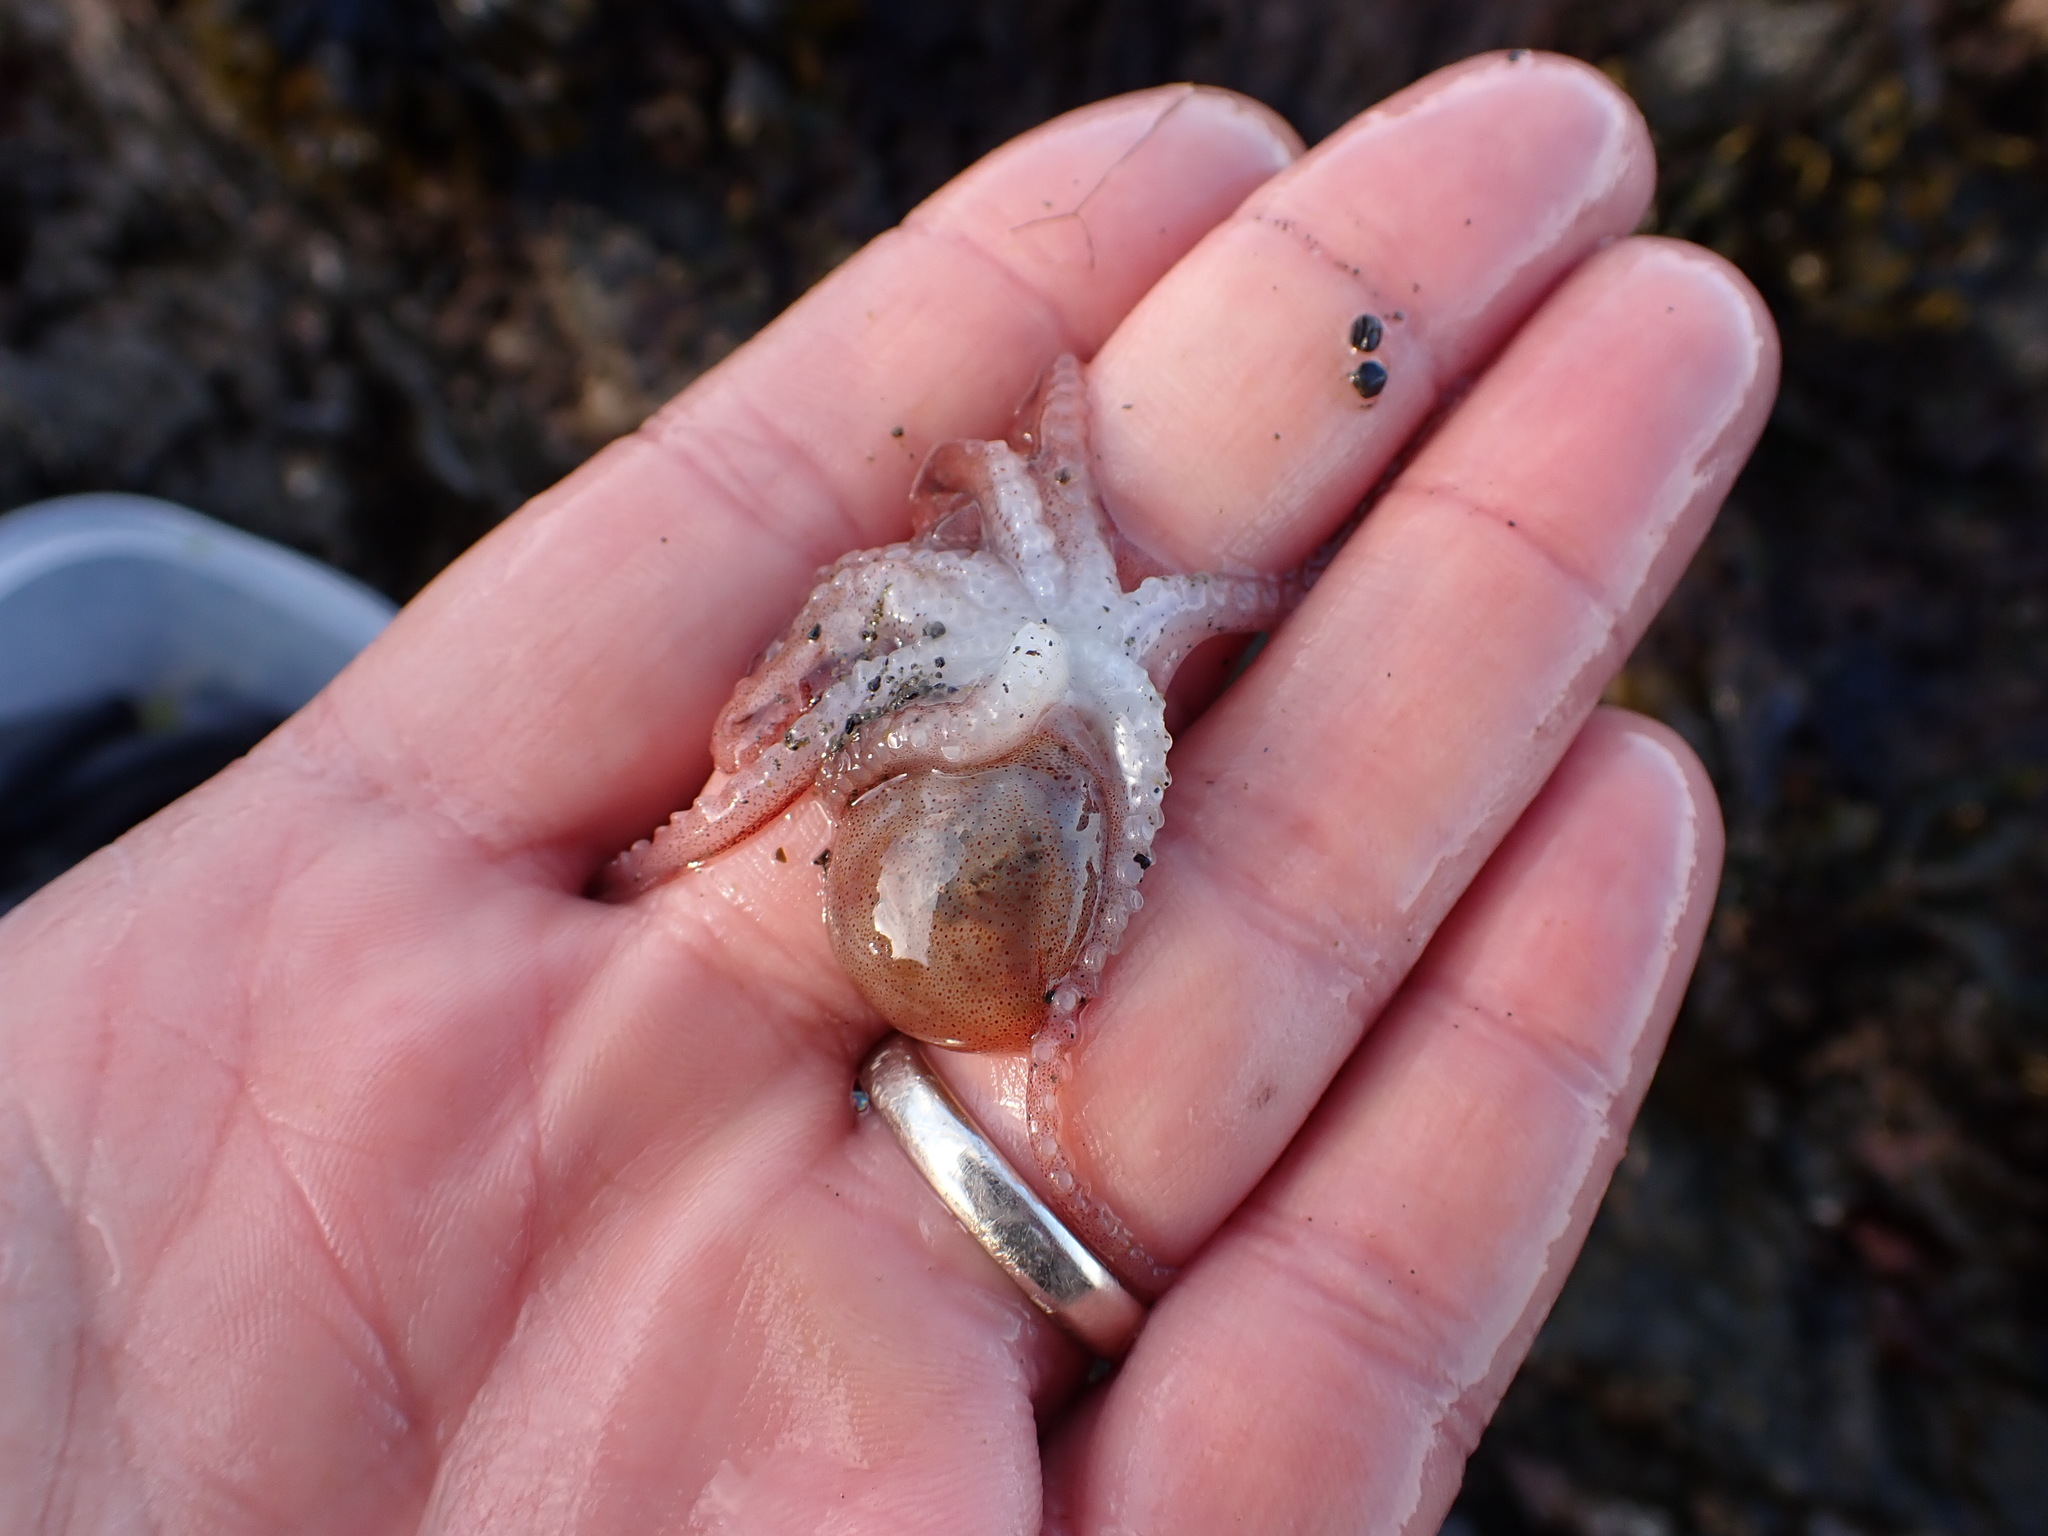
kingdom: Animalia
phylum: Mollusca
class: Cephalopoda
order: Octopoda
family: Enteroctopodidae
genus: Enteroctopus
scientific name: Enteroctopus dofleini
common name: Giant north pacific octopus
